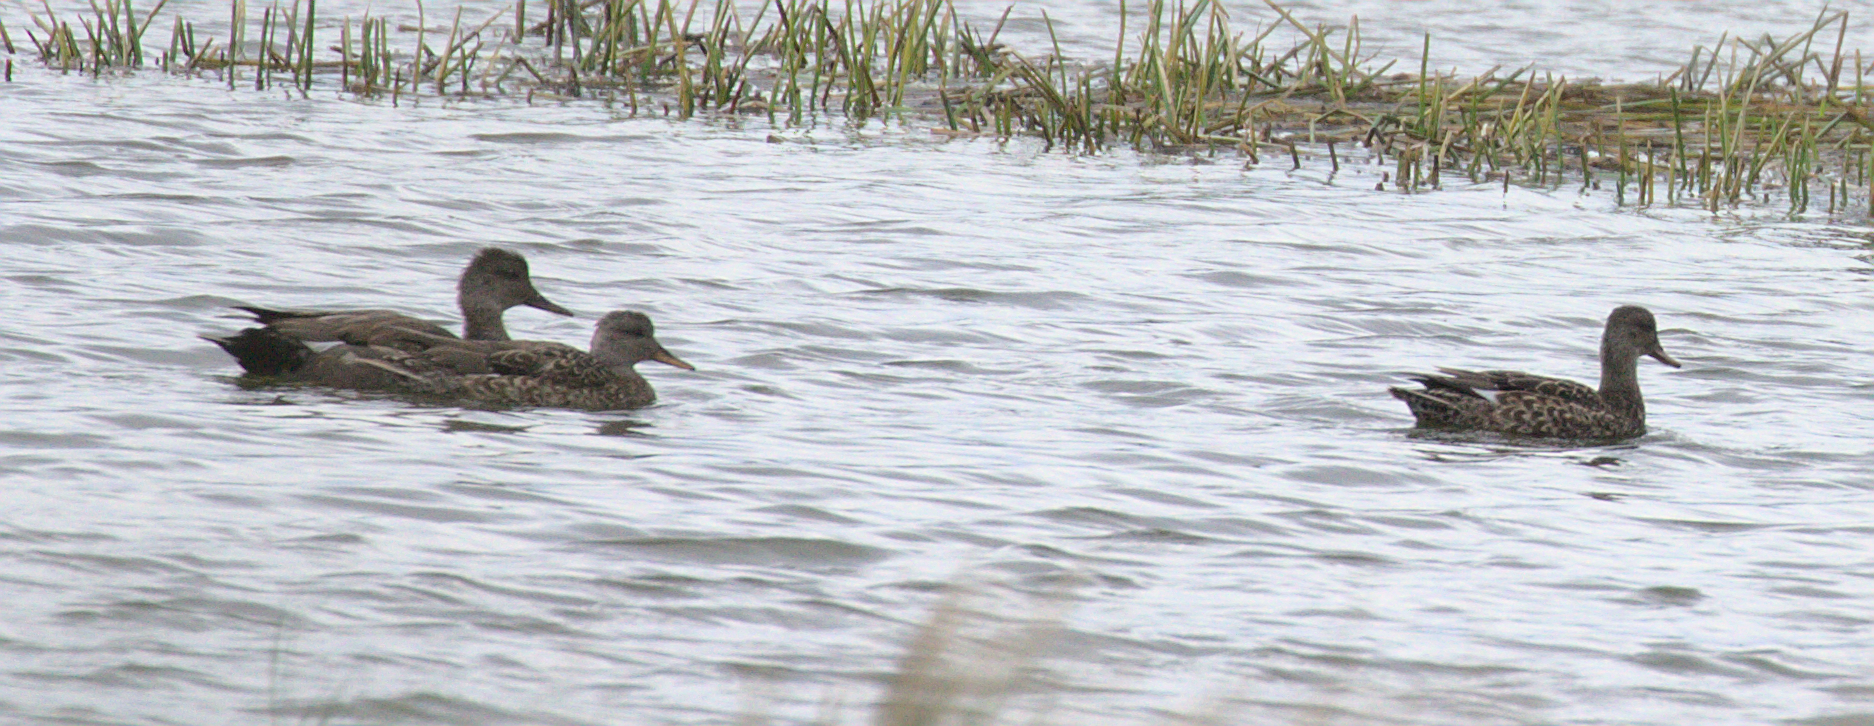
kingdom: Animalia
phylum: Chordata
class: Aves
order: Anseriformes
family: Anatidae
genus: Mareca
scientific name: Mareca strepera
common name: Gadwall
